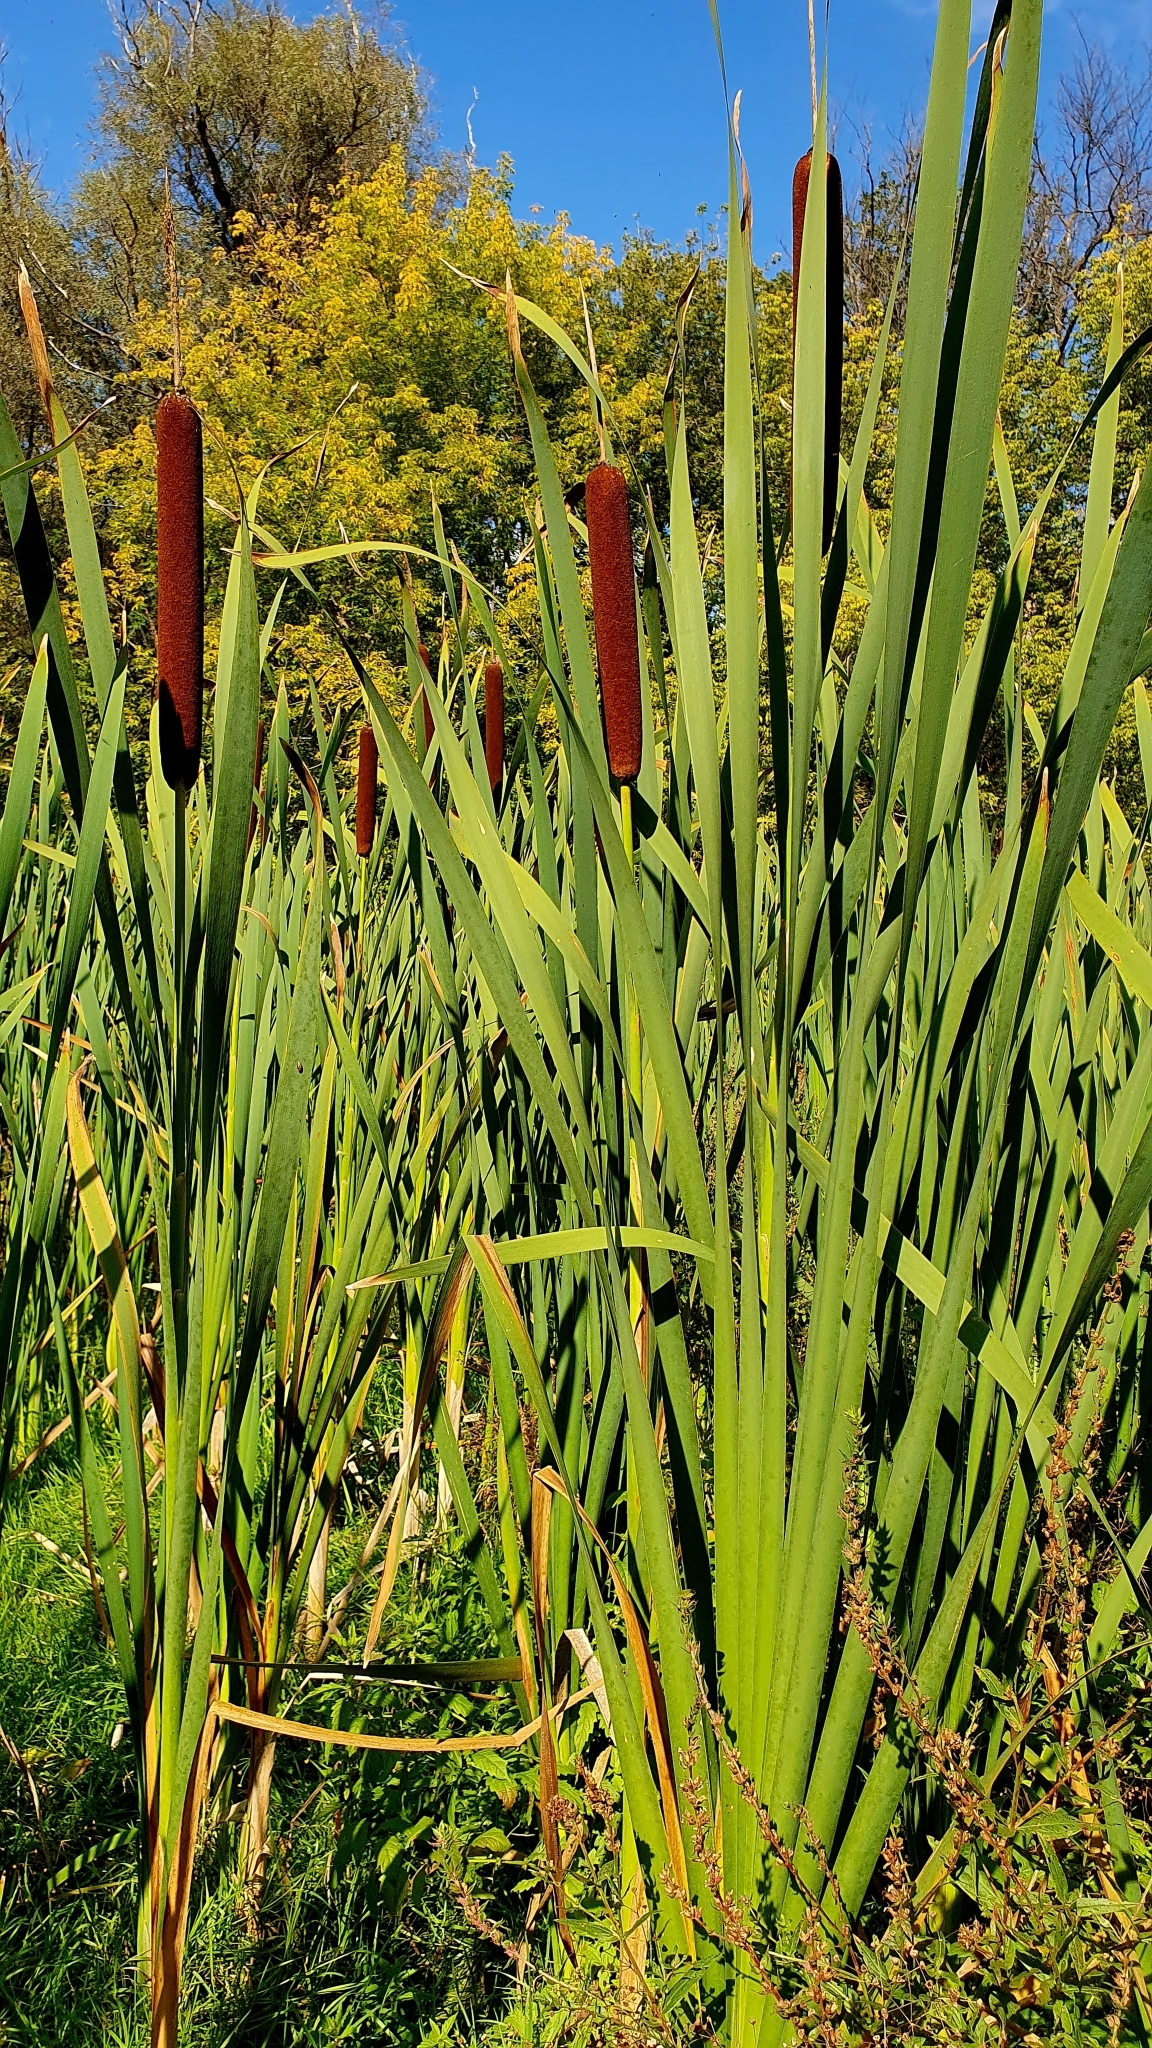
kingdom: Plantae
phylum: Tracheophyta
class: Liliopsida
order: Poales
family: Typhaceae
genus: Typha
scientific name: Typha latifolia
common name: Broadleaf cattail
